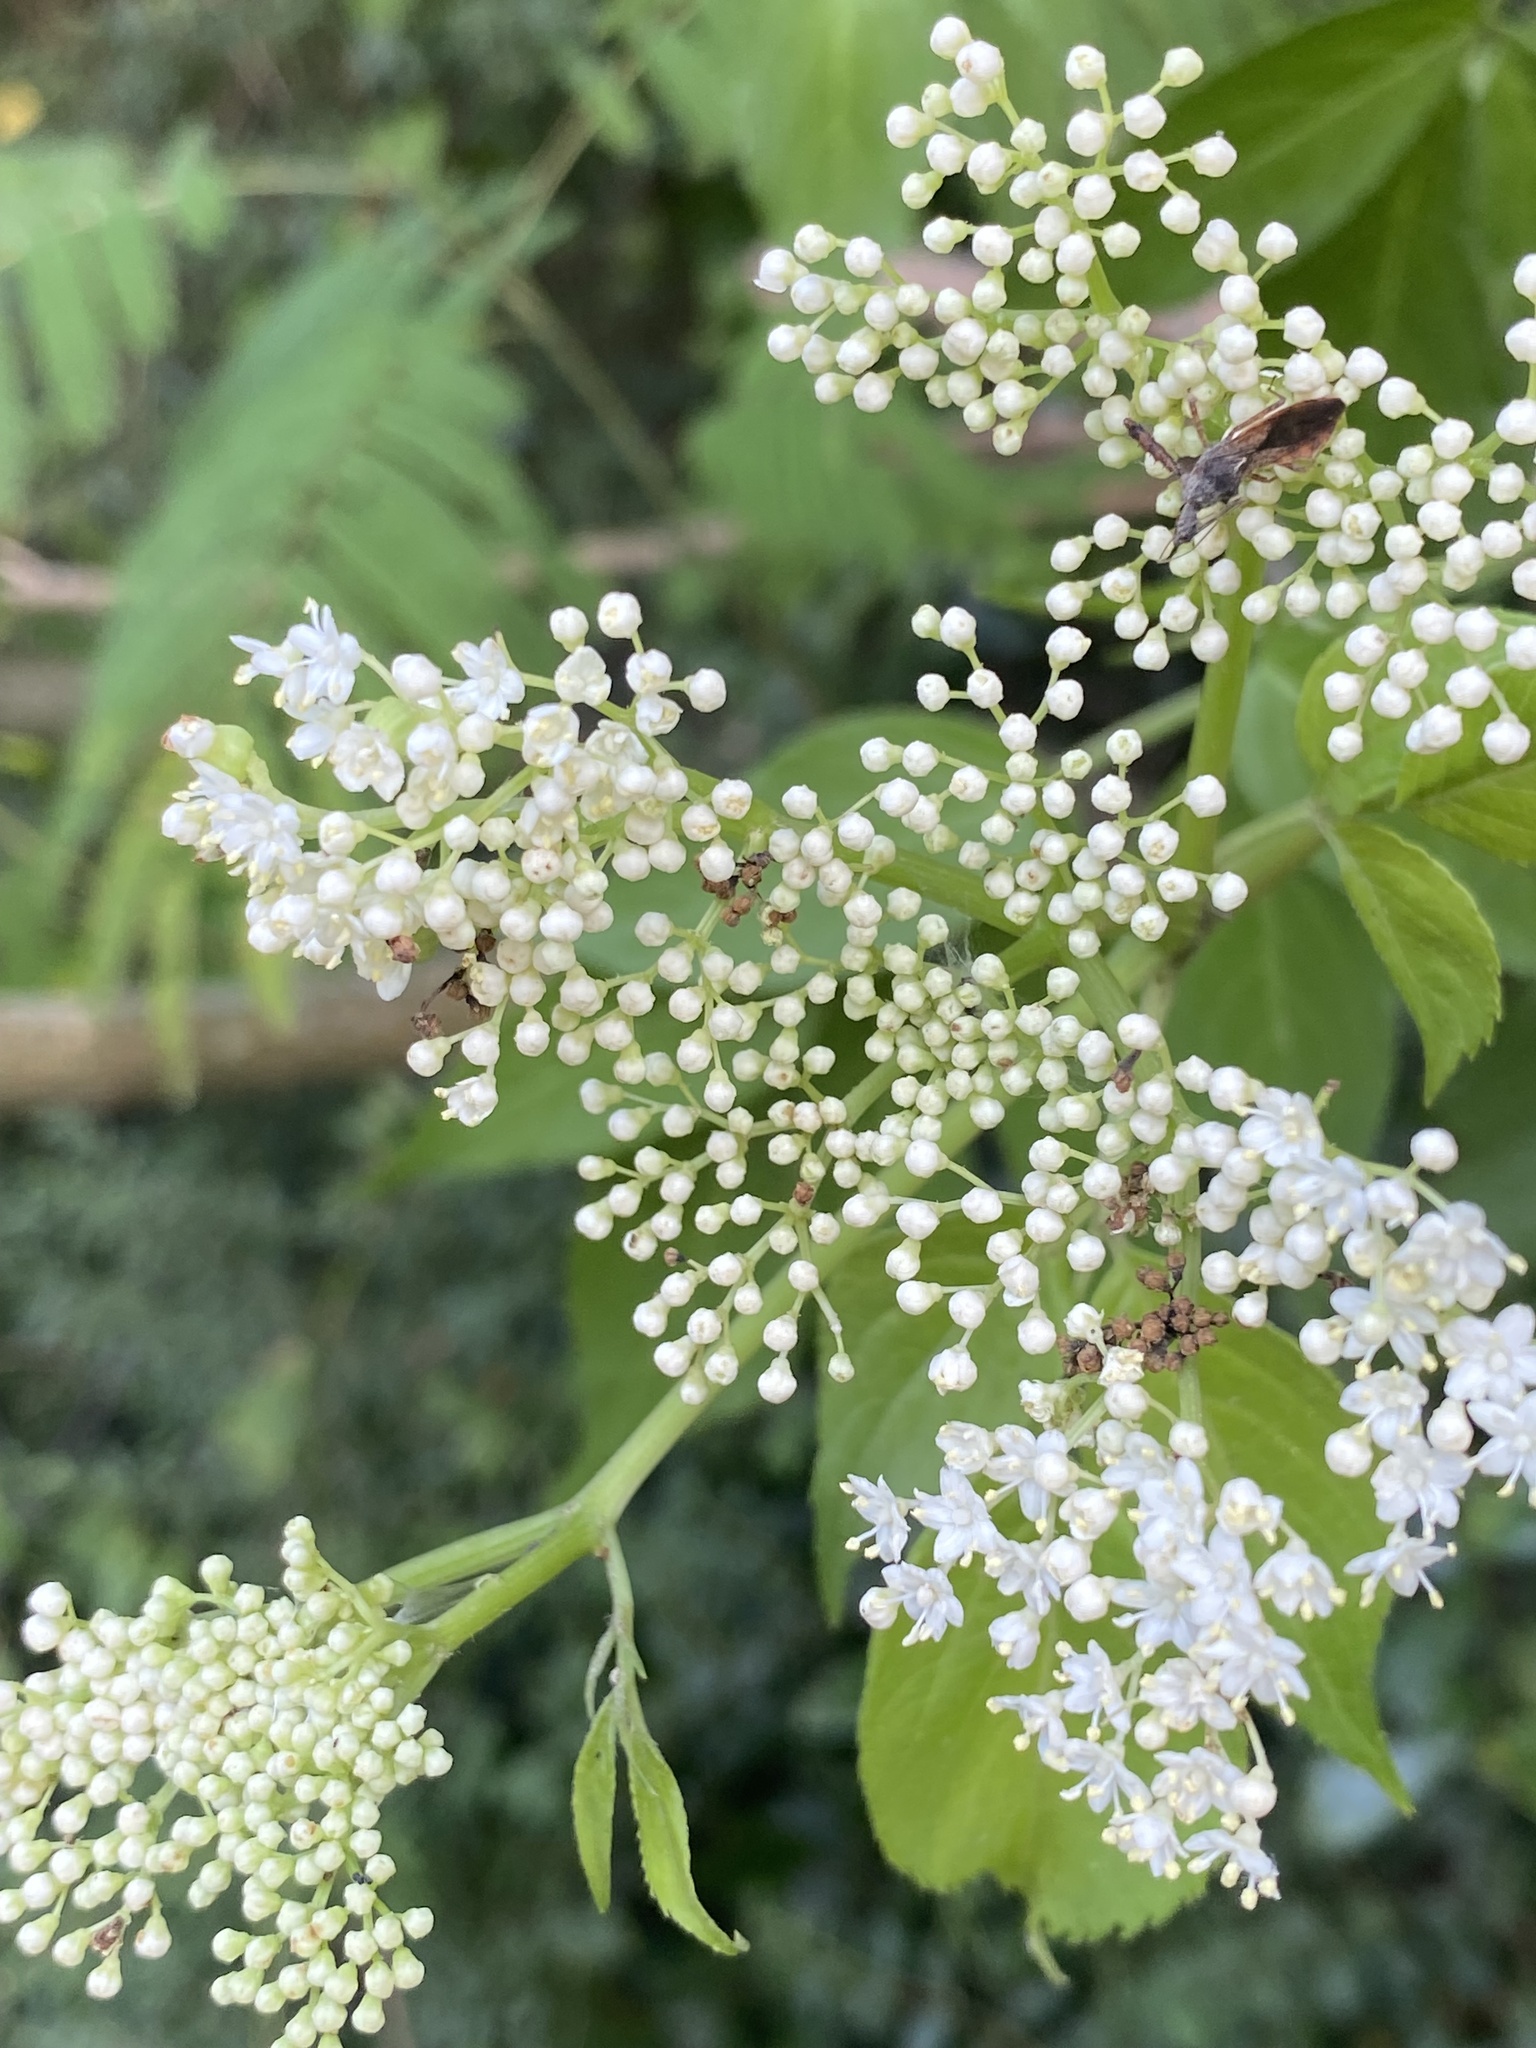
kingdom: Plantae
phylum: Tracheophyta
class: Magnoliopsida
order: Dipsacales
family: Viburnaceae
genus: Sambucus
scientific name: Sambucus canadensis
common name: American elder
